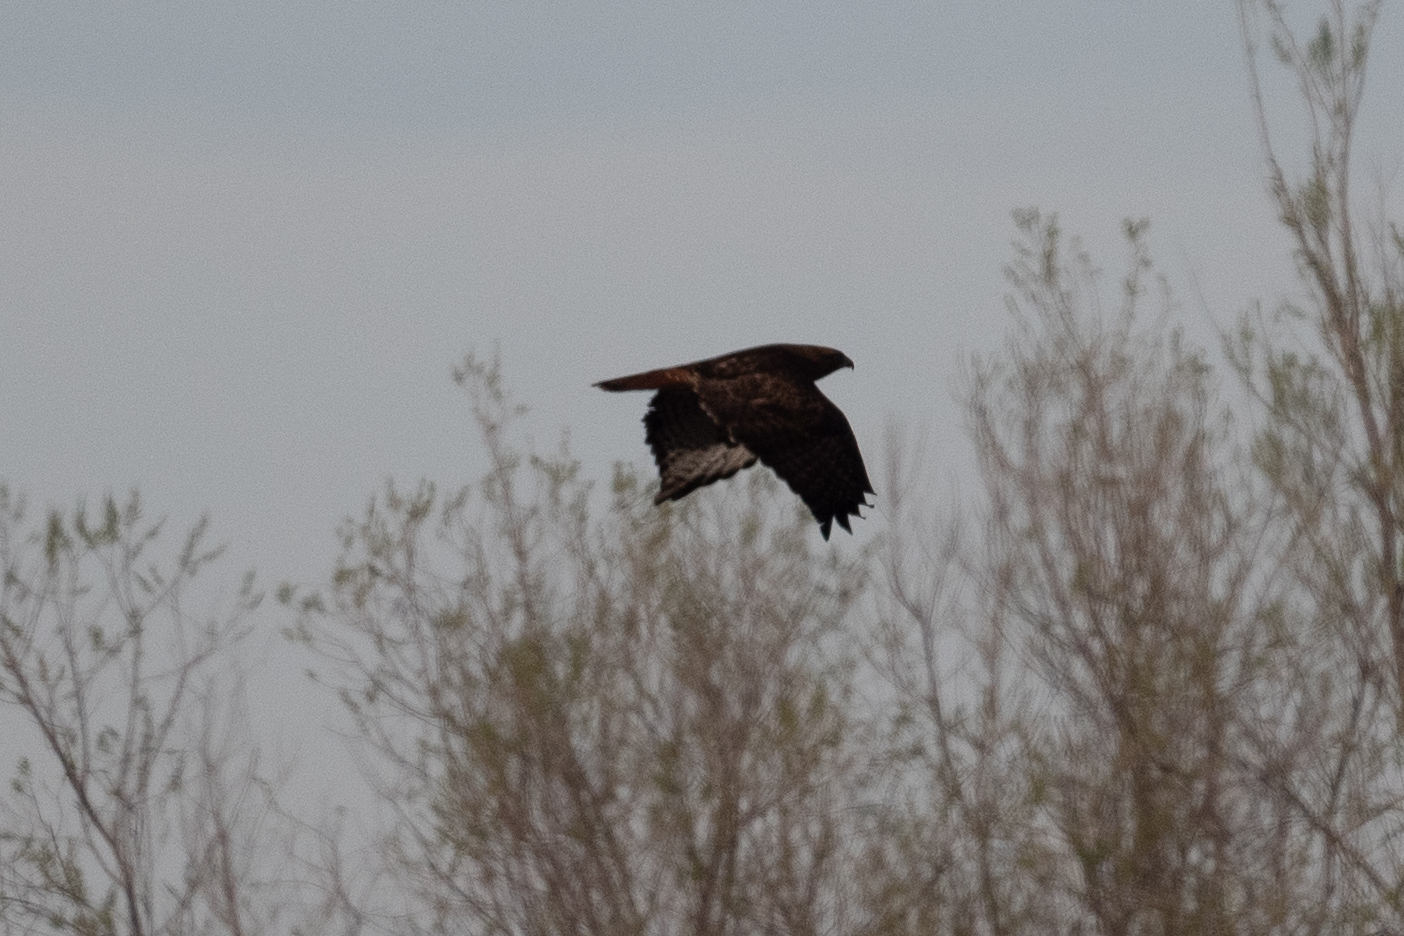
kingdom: Animalia
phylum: Chordata
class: Aves
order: Accipitriformes
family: Accipitridae
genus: Buteo
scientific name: Buteo jamaicensis
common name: Red-tailed hawk
